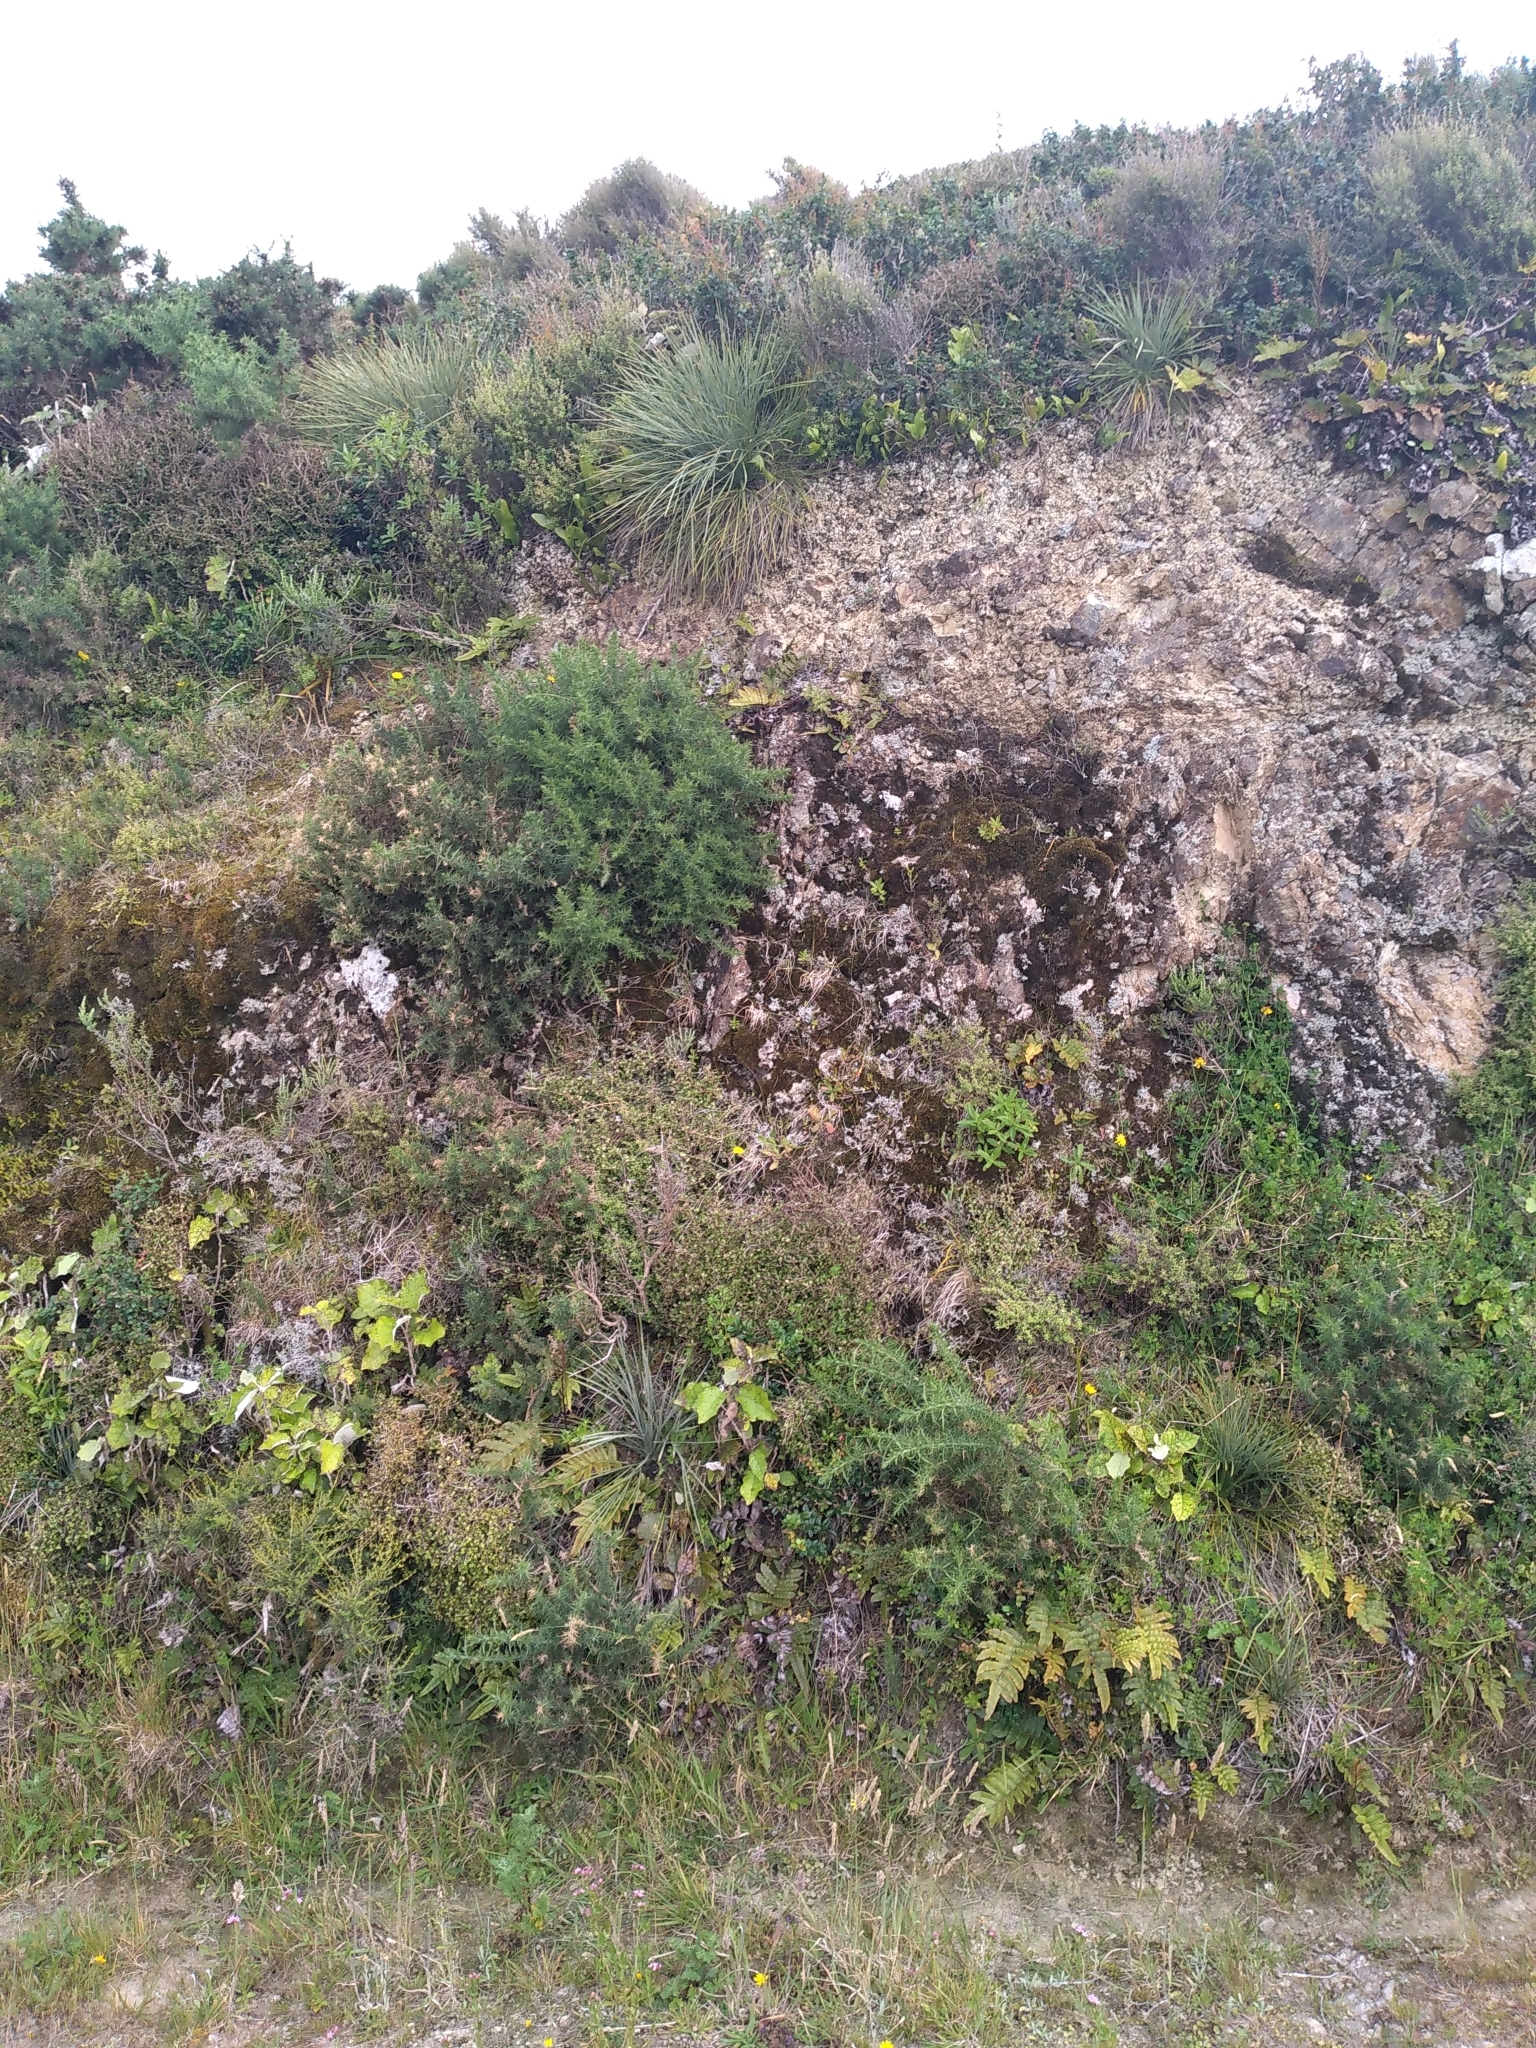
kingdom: Plantae
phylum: Tracheophyta
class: Magnoliopsida
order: Apiales
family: Apiaceae
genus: Aciphylla
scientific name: Aciphylla squarrosa
